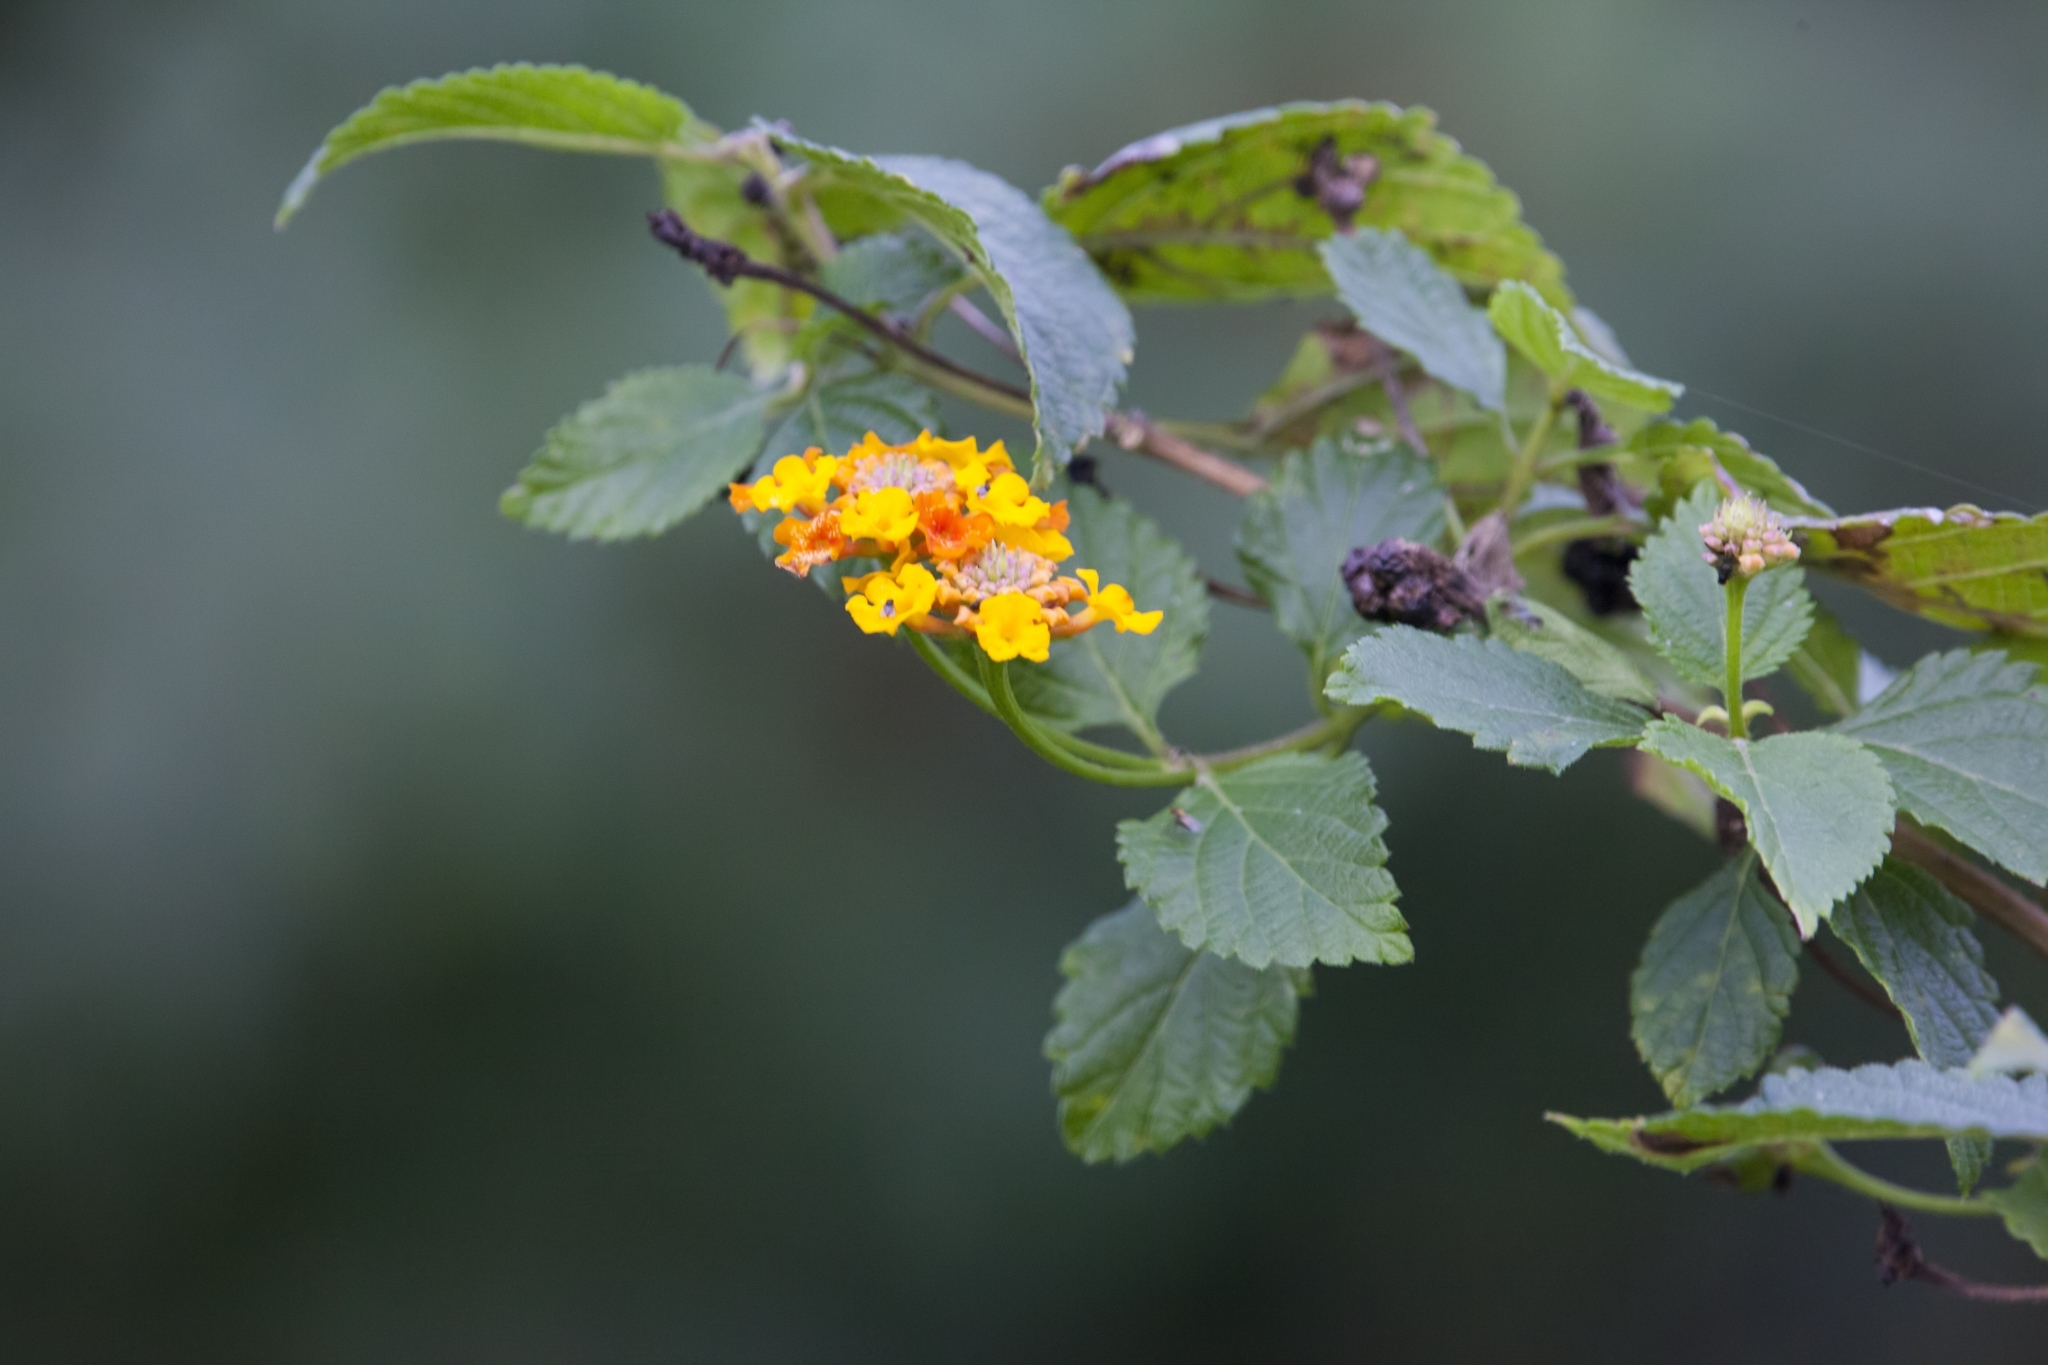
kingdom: Plantae
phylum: Tracheophyta
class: Magnoliopsida
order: Lamiales
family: Verbenaceae
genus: Lantana
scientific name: Lantana camara
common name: Lantana
